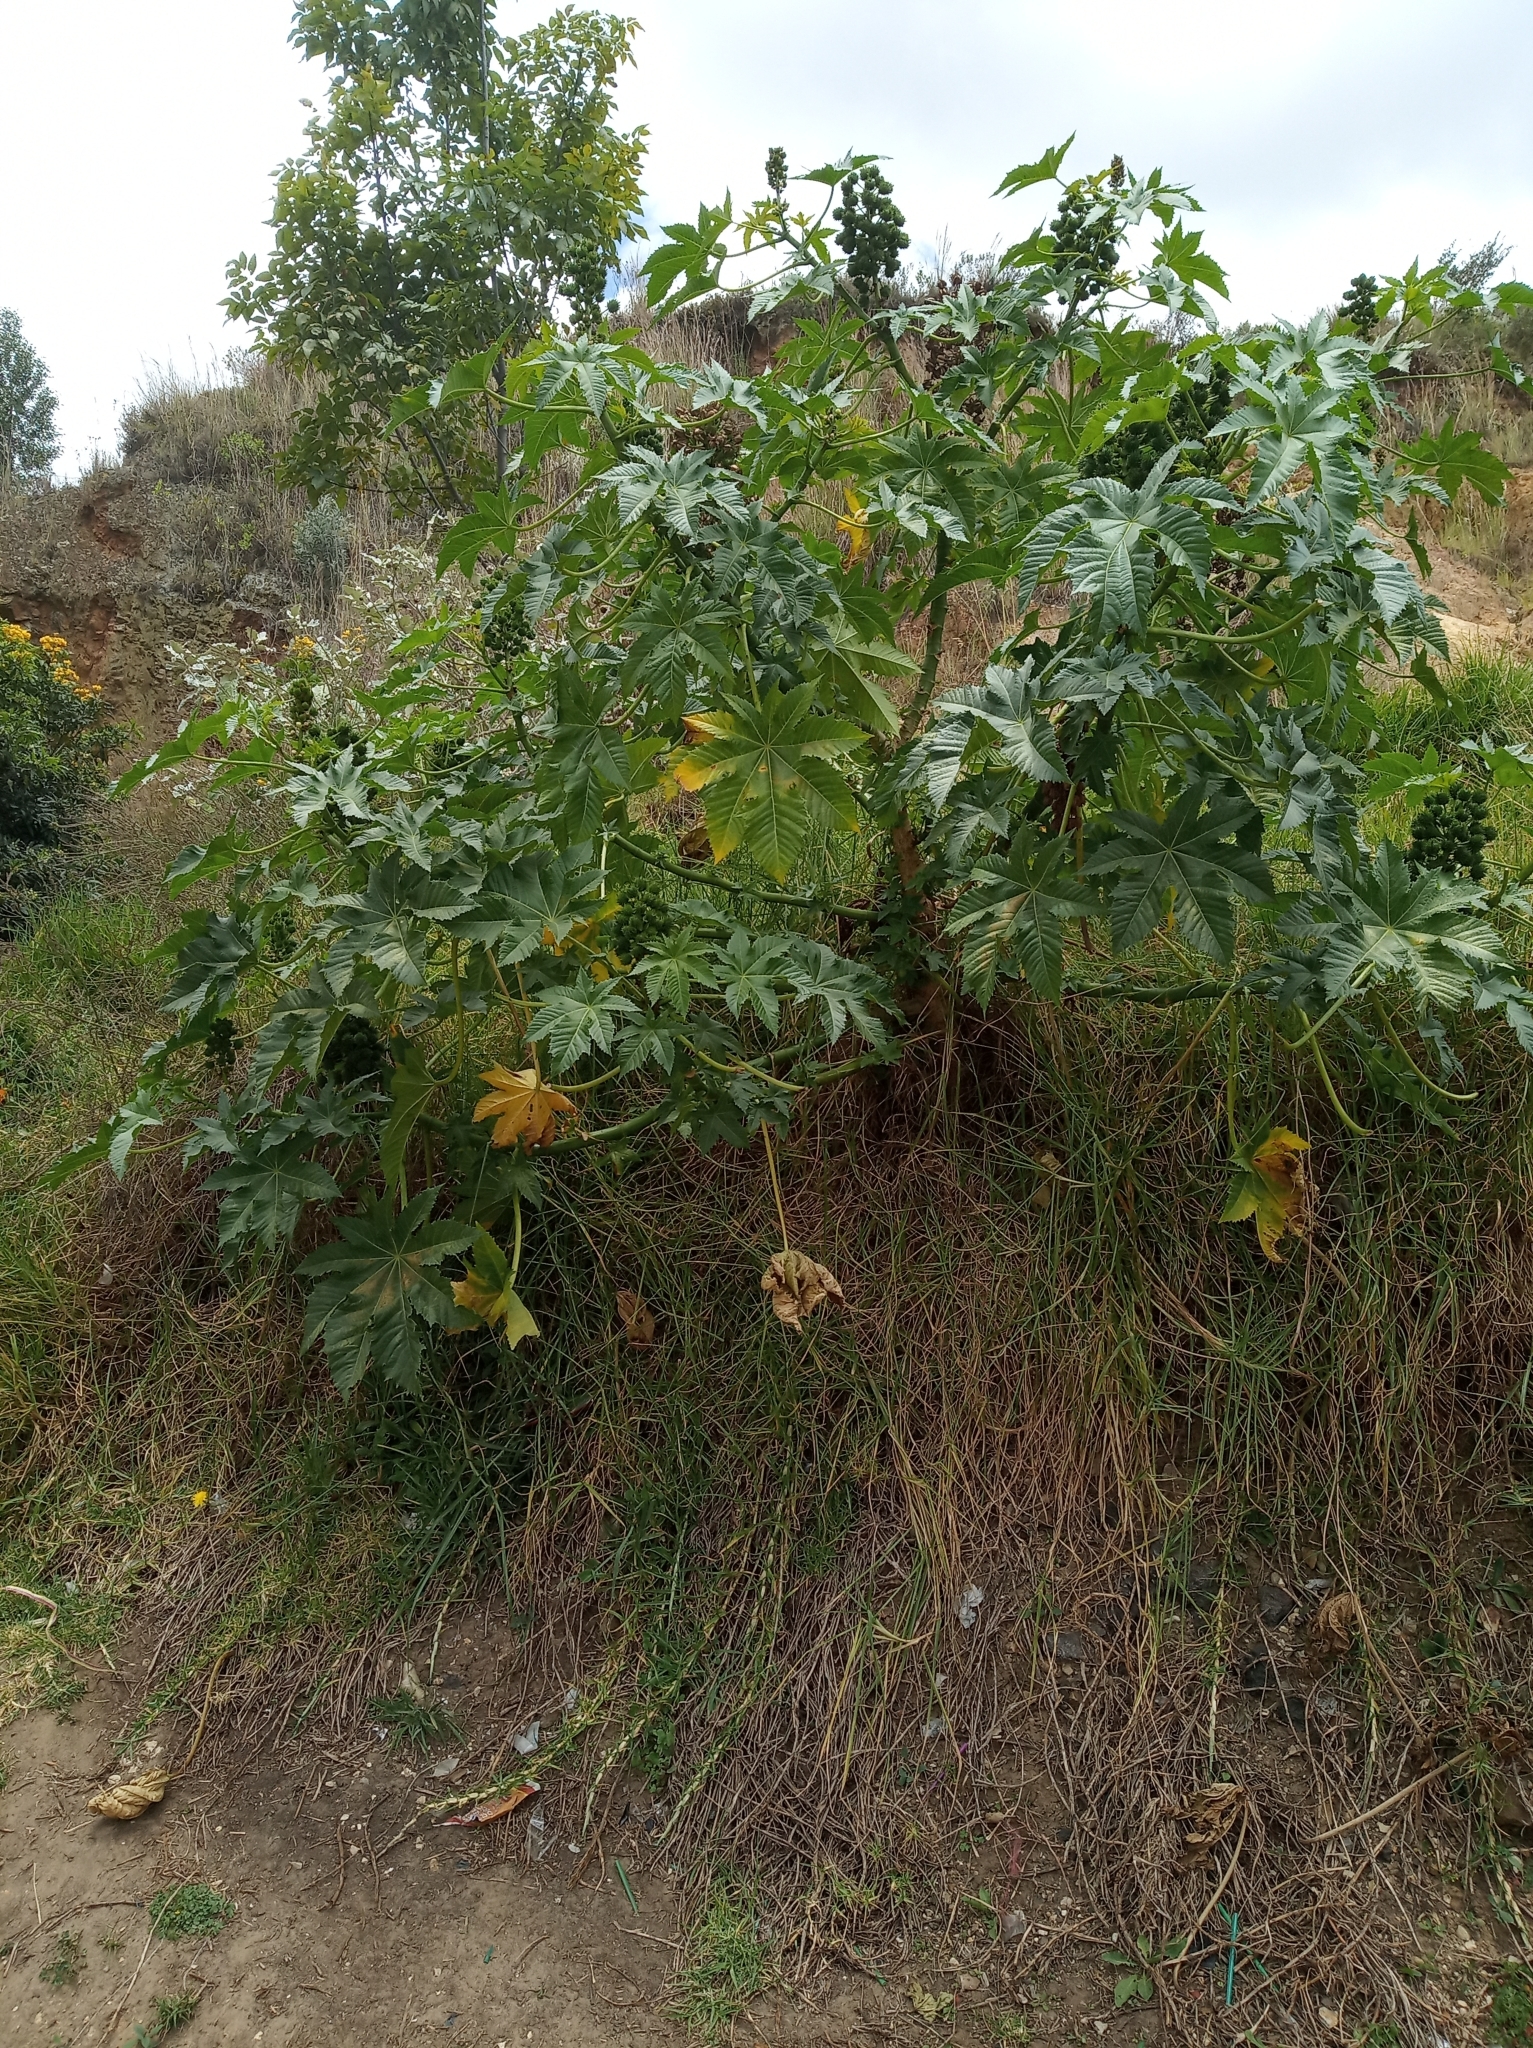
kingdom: Plantae
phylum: Tracheophyta
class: Magnoliopsida
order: Malpighiales
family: Euphorbiaceae
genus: Ricinus
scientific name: Ricinus communis
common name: Castor-oil-plant
